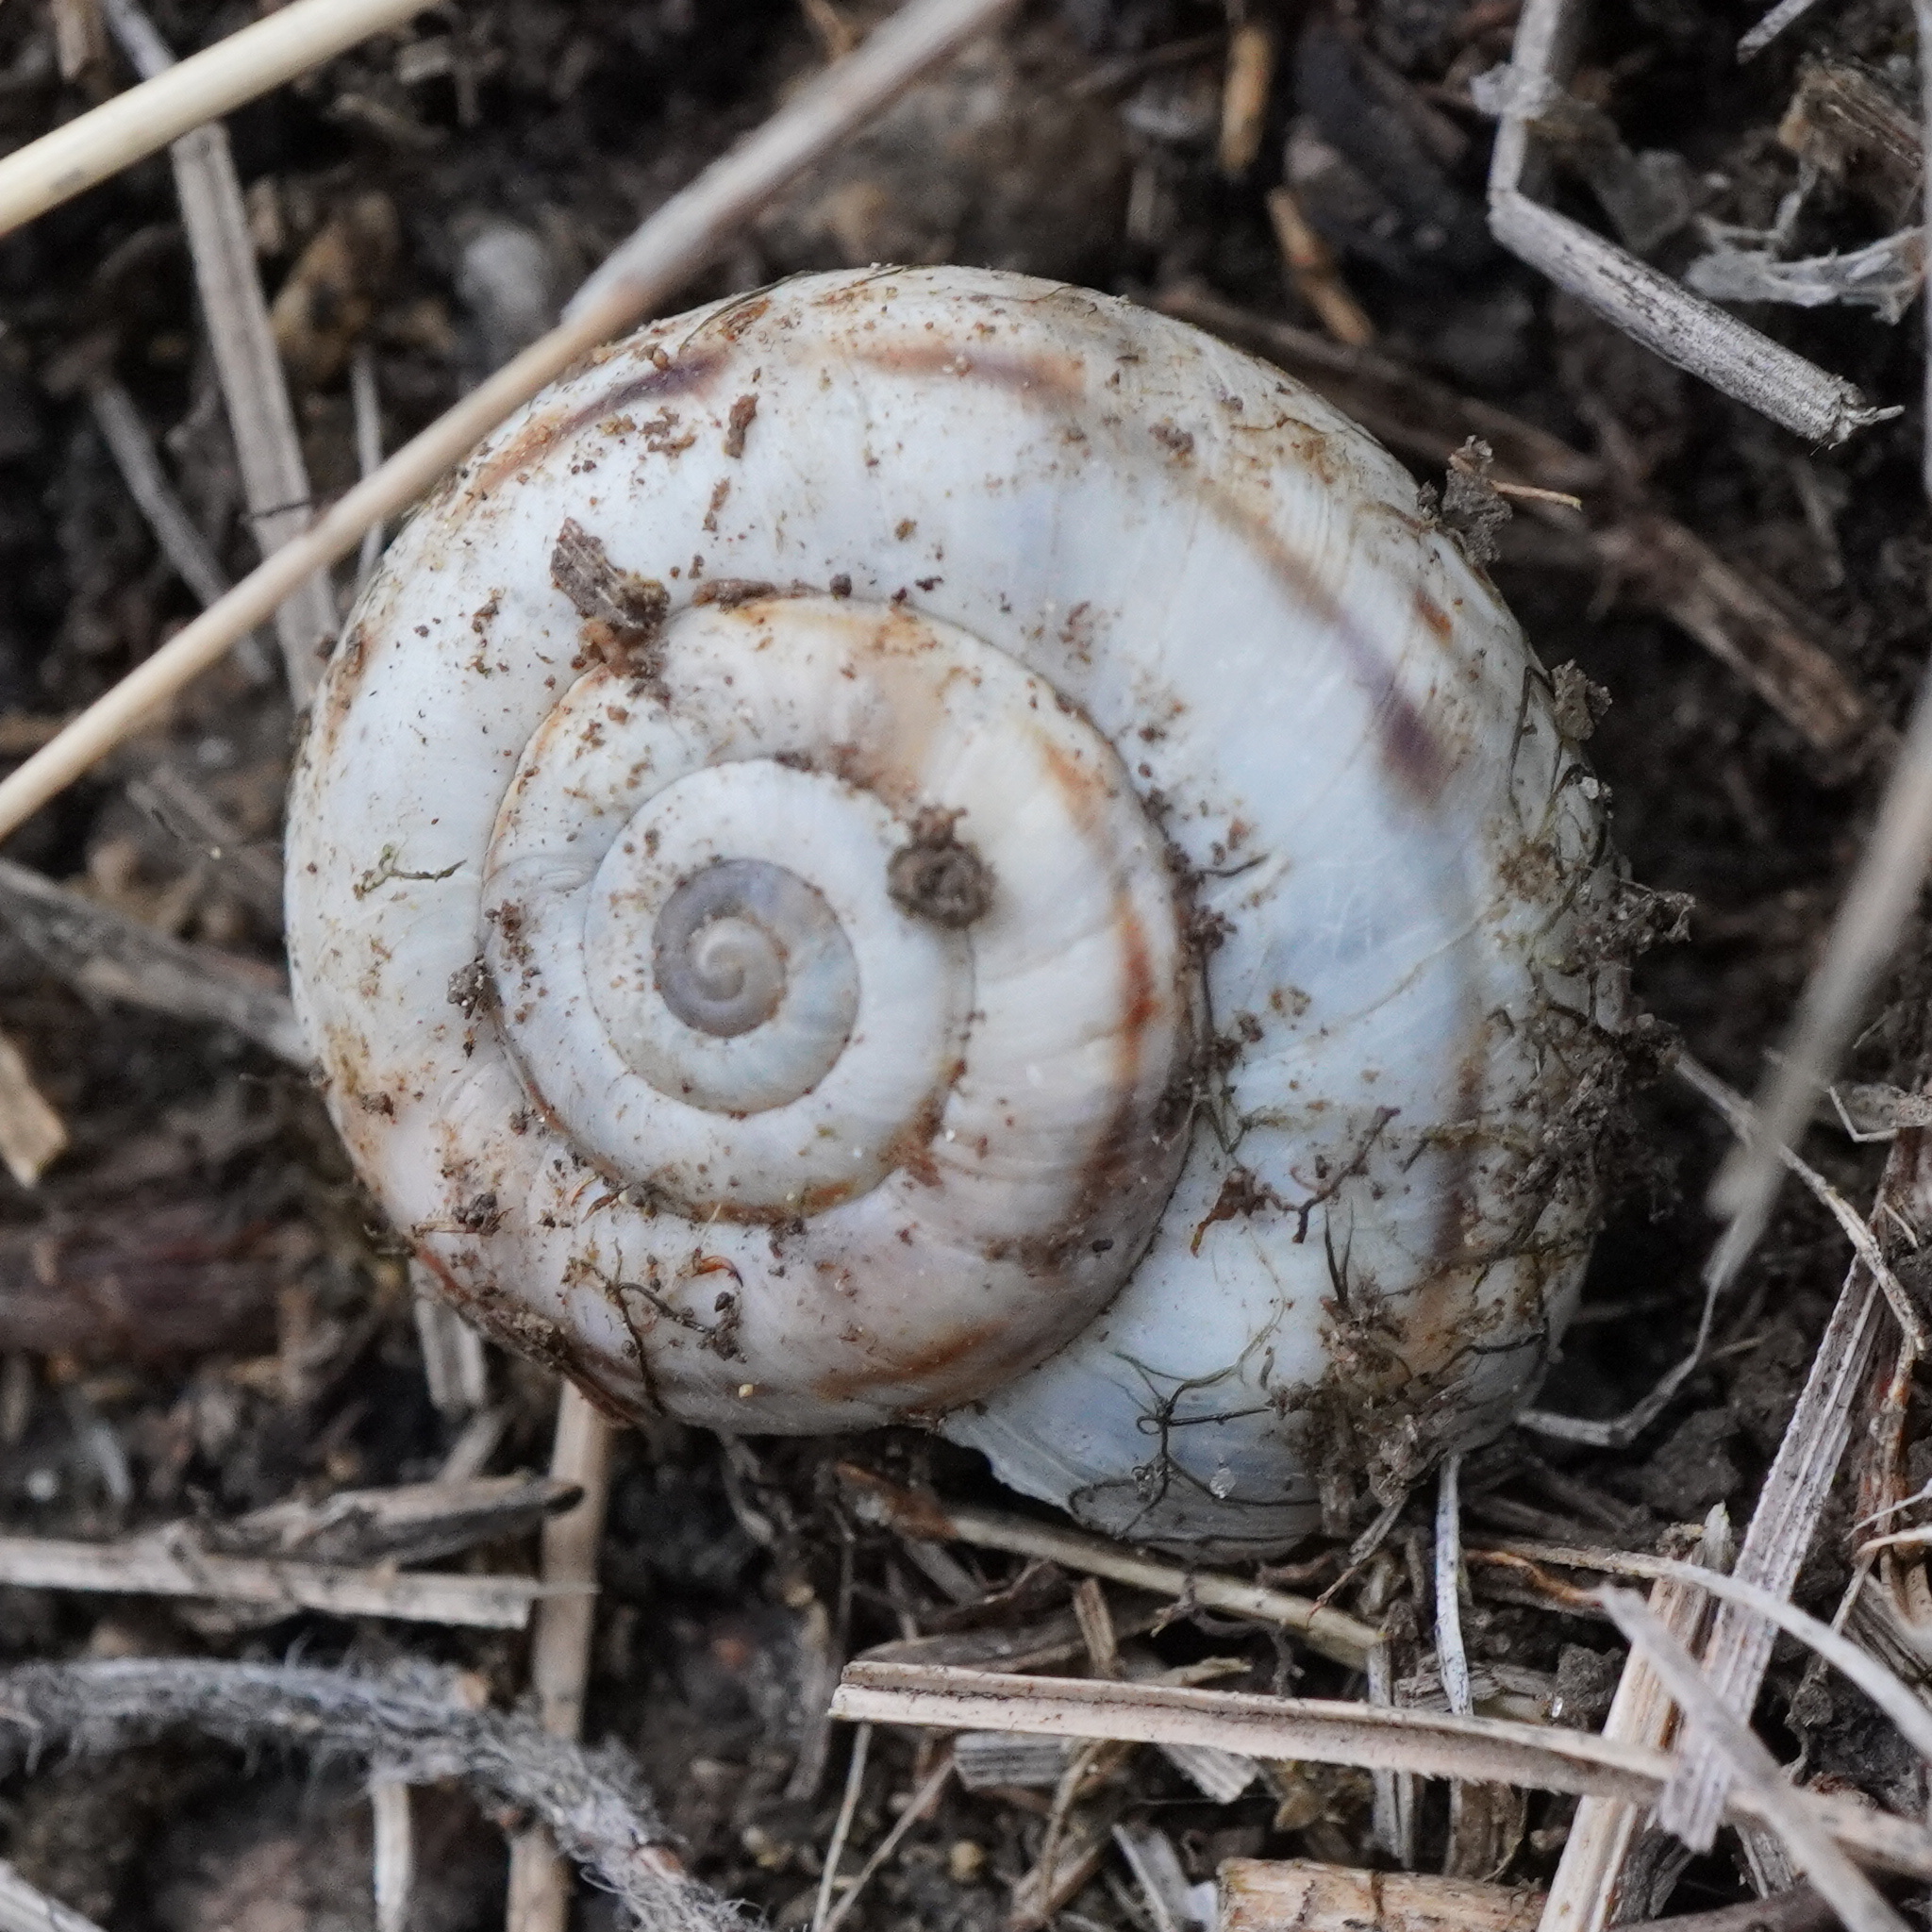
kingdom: Animalia
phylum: Mollusca
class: Gastropoda
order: Stylommatophora
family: Geomitridae
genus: Xerolenta
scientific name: Xerolenta obvia
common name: White heath snail
